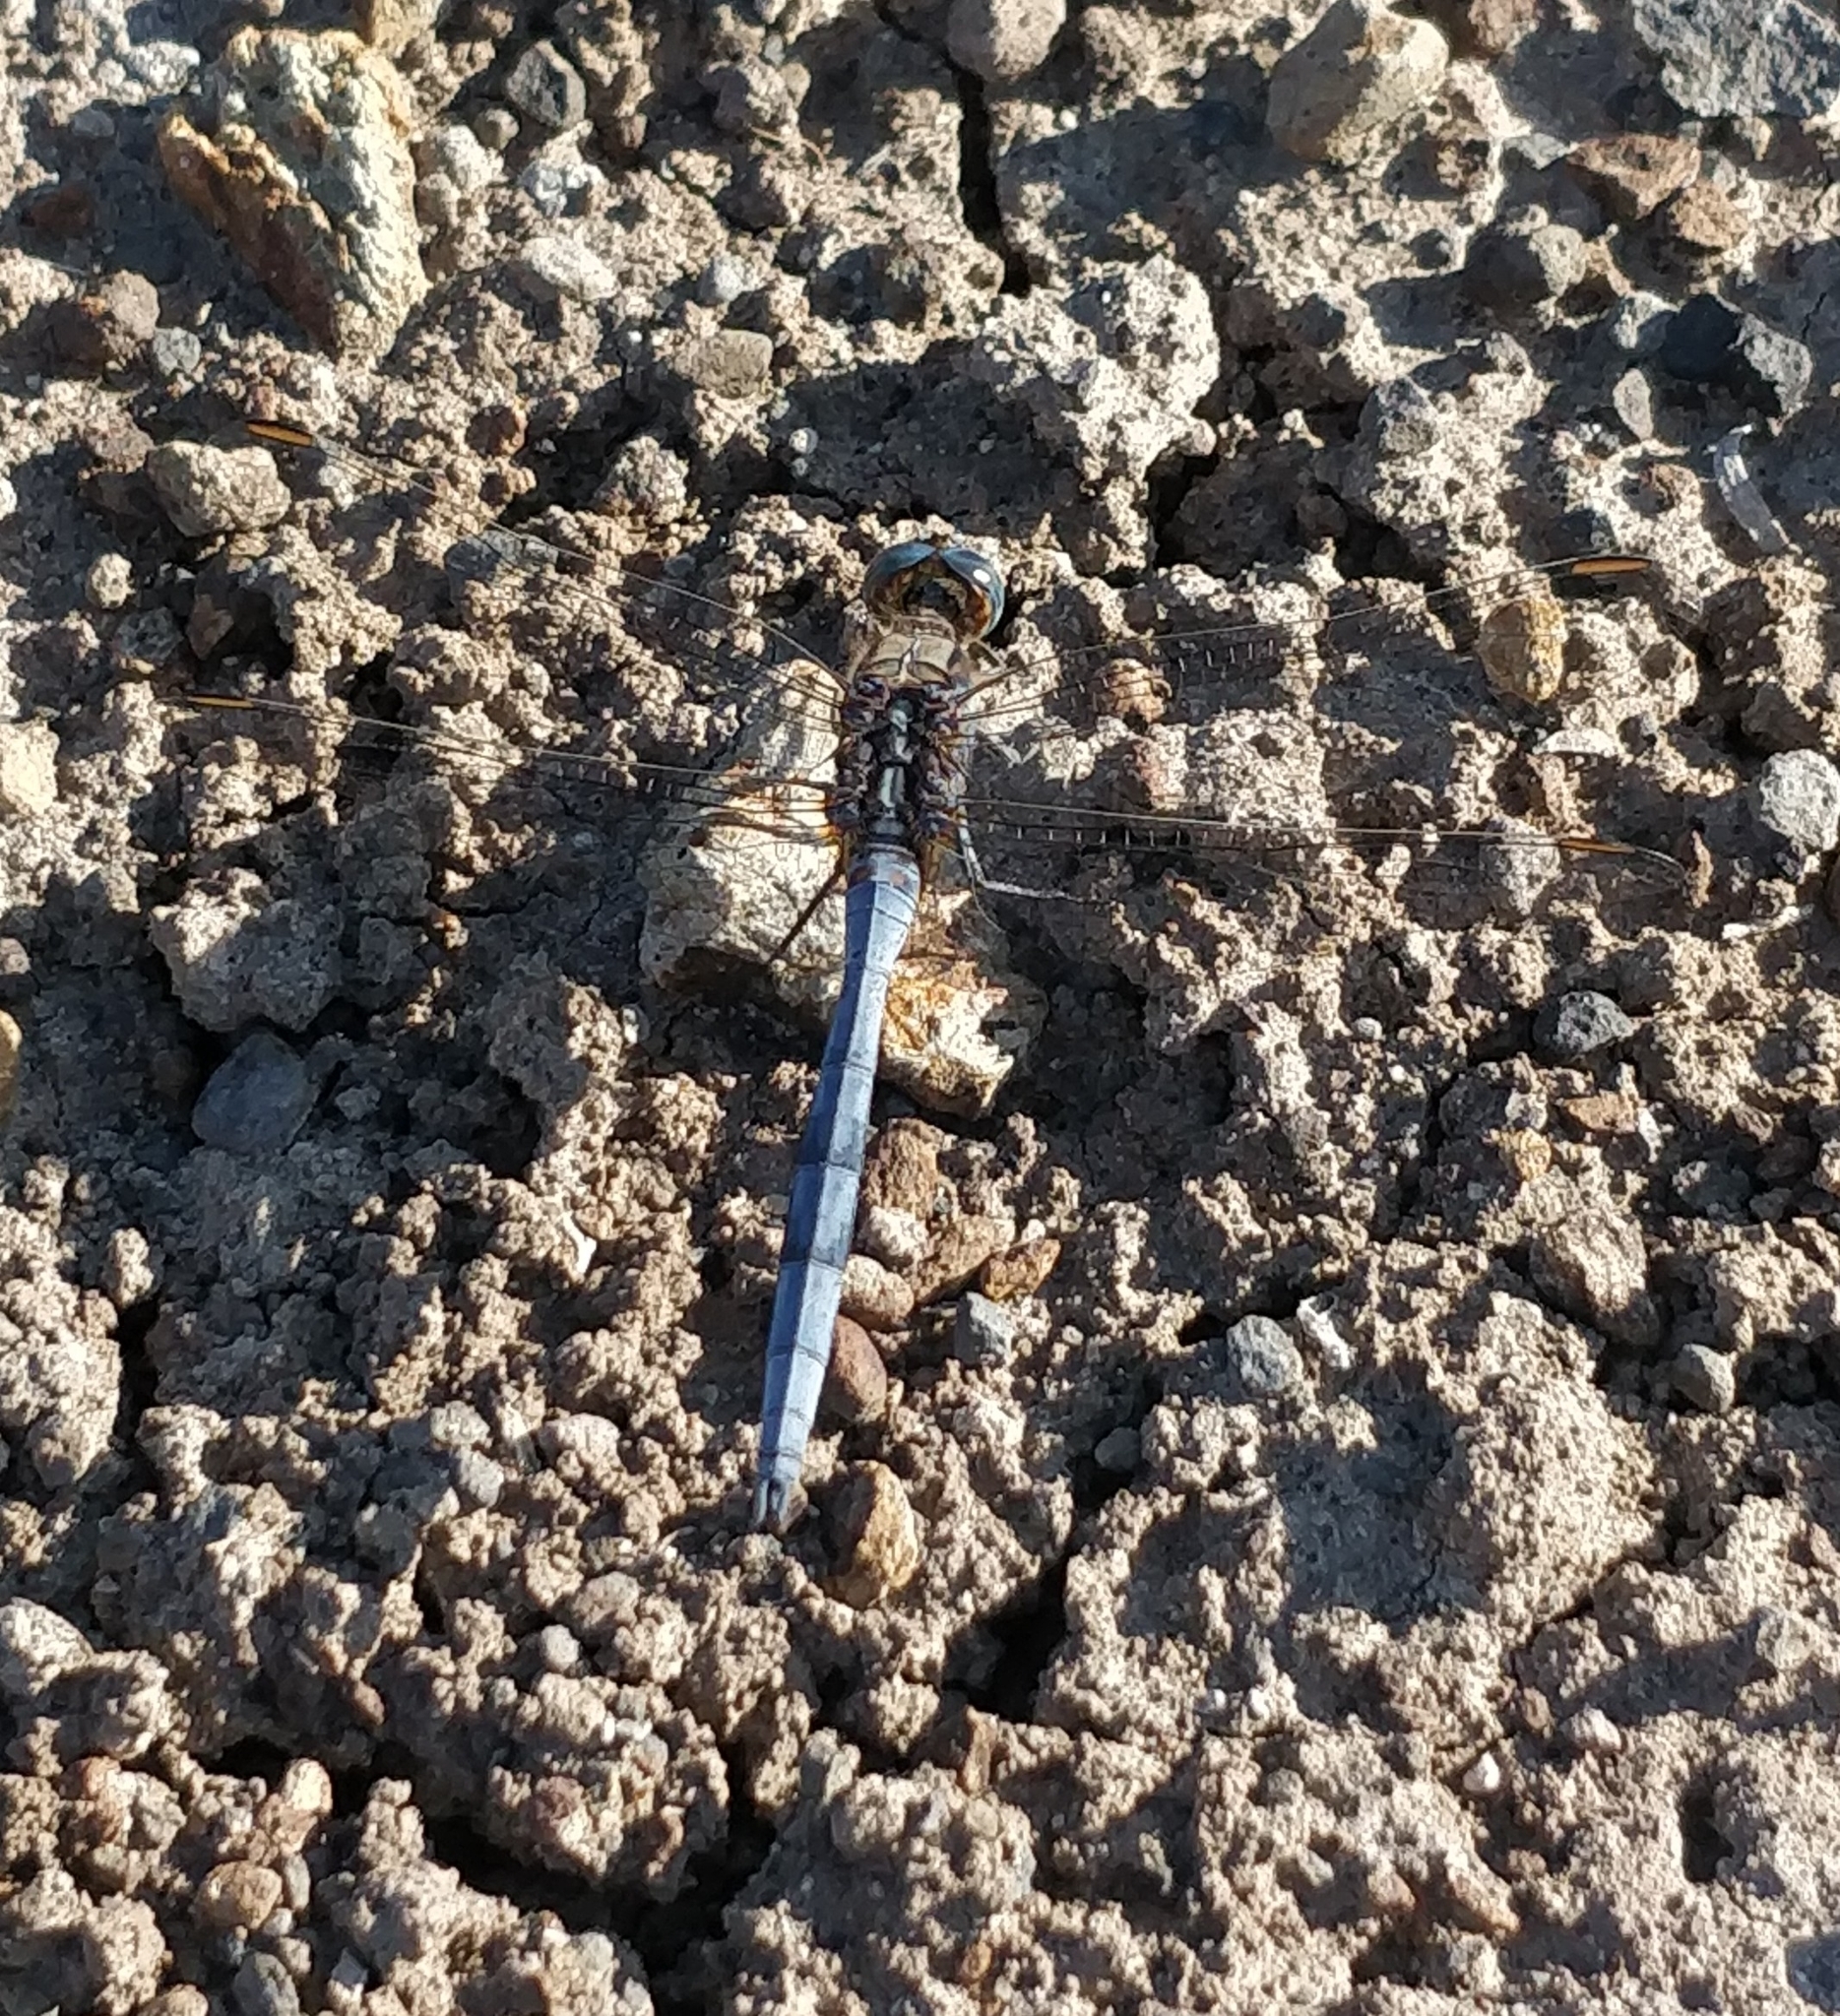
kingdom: Animalia
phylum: Arthropoda
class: Insecta
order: Odonata
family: Libellulidae
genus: Orthetrum
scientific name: Orthetrum chrysostigma
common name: Epaulet skimmer
